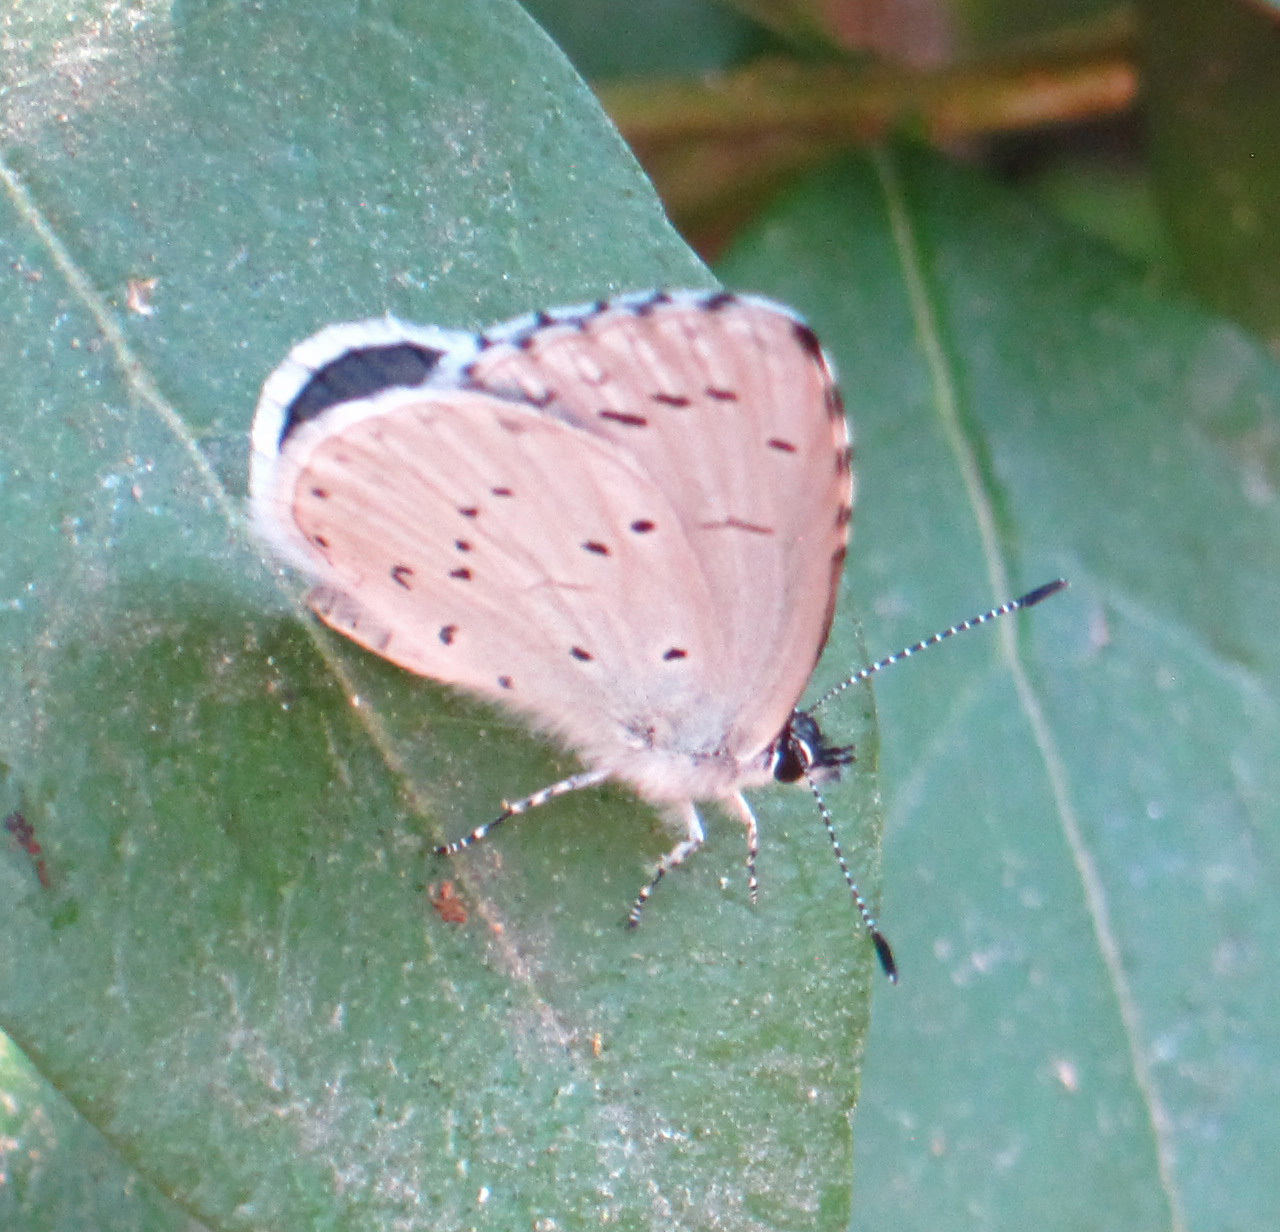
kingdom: Animalia
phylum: Arthropoda
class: Insecta
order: Lepidoptera
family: Lycaenidae
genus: Celastrina
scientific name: Celastrina argiolus
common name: Holly blue
